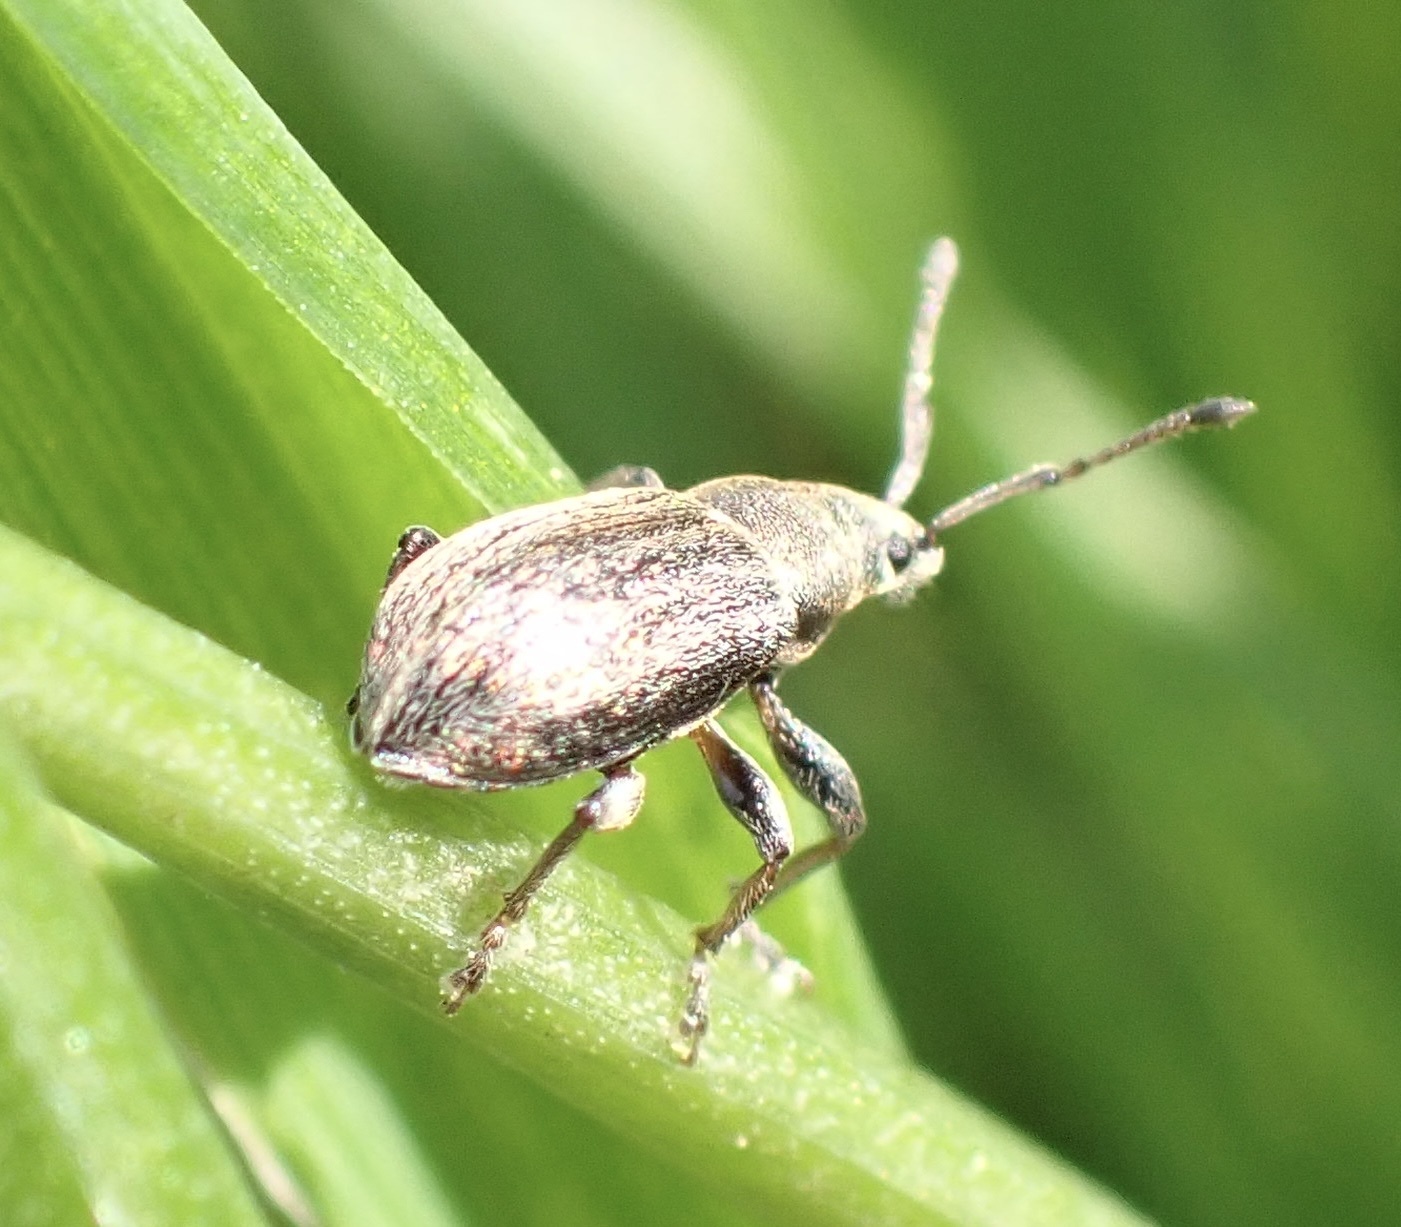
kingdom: Animalia
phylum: Arthropoda
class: Insecta
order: Coleoptera
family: Curculionidae
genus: Phyllobius
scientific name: Phyllobius pyri
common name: Common leaf weevil
